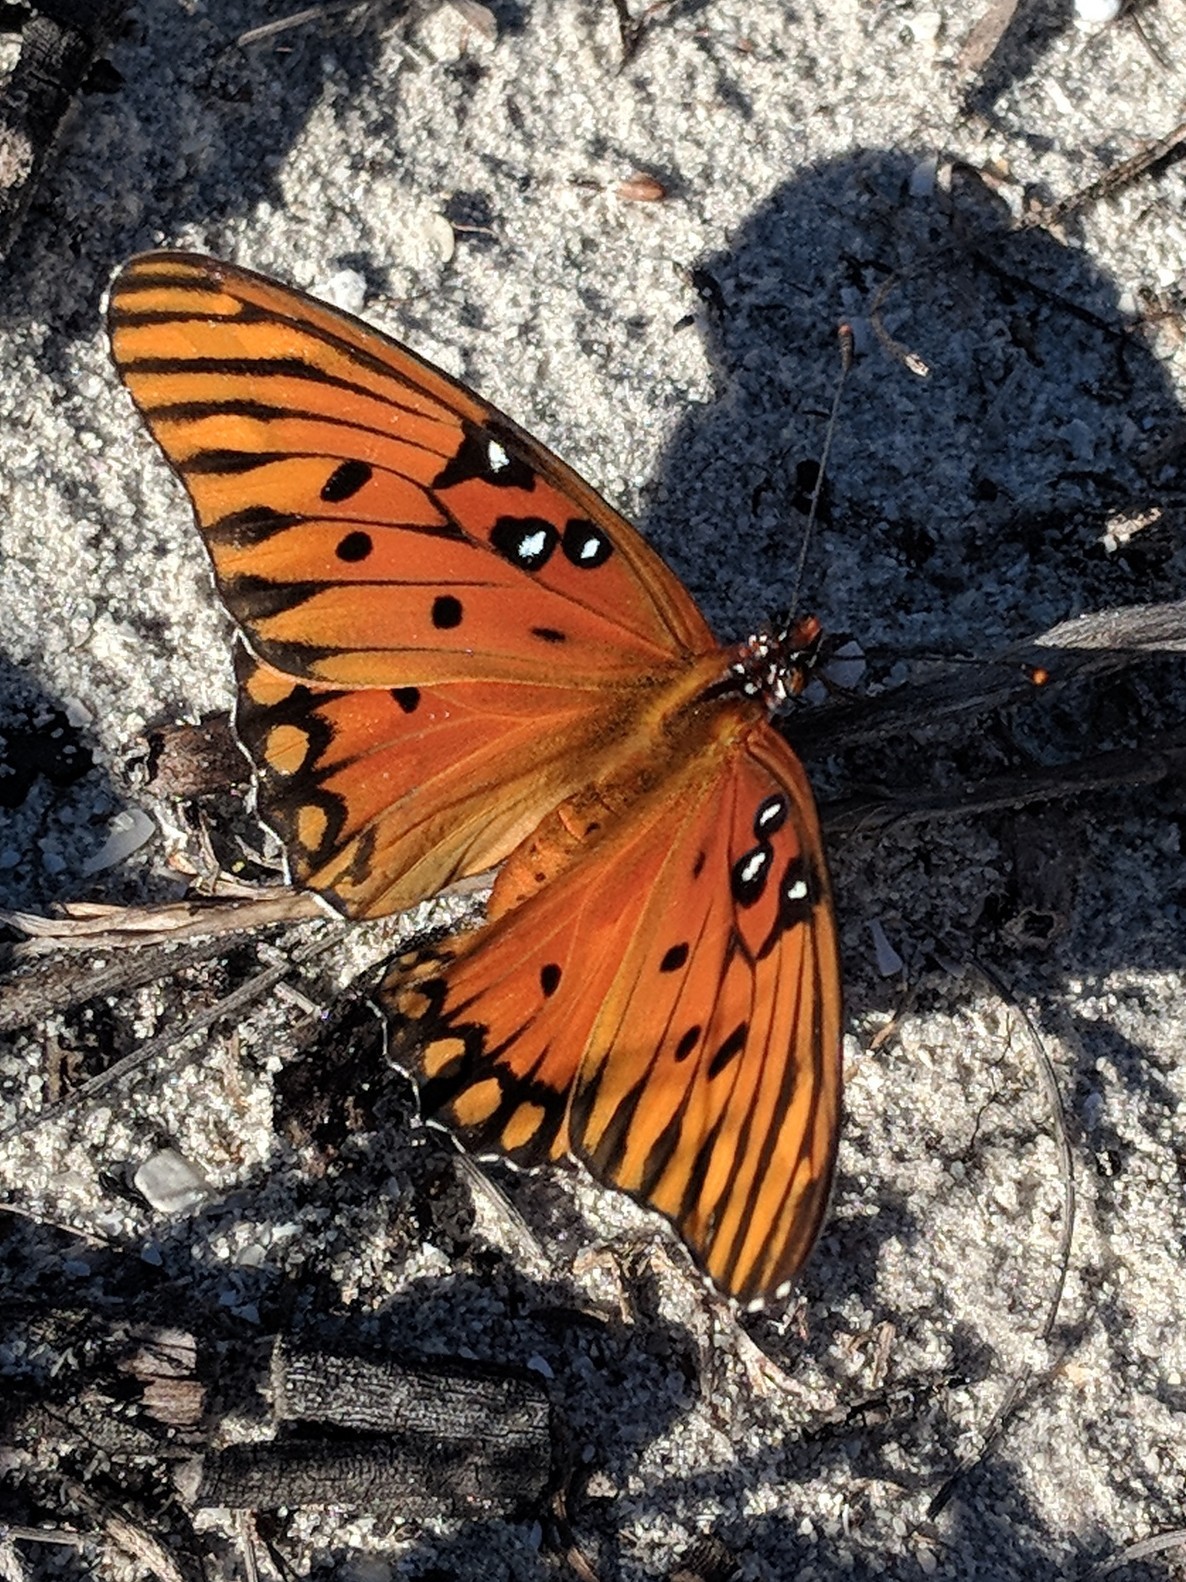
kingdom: Animalia
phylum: Arthropoda
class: Insecta
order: Lepidoptera
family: Nymphalidae
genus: Dione
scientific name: Dione vanillae
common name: Gulf fritillary
